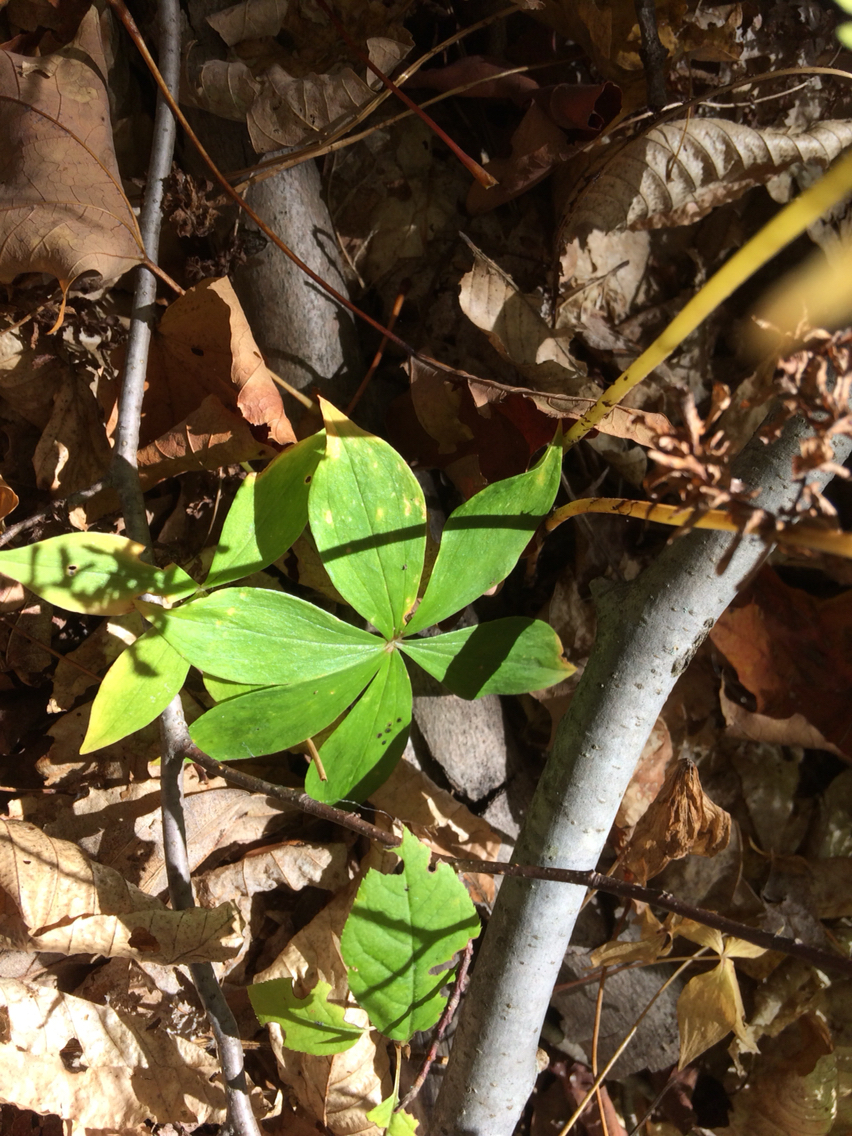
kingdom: Plantae
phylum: Tracheophyta
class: Liliopsida
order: Liliales
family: Liliaceae
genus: Medeola
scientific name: Medeola virginiana
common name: Indian cucumber-root
